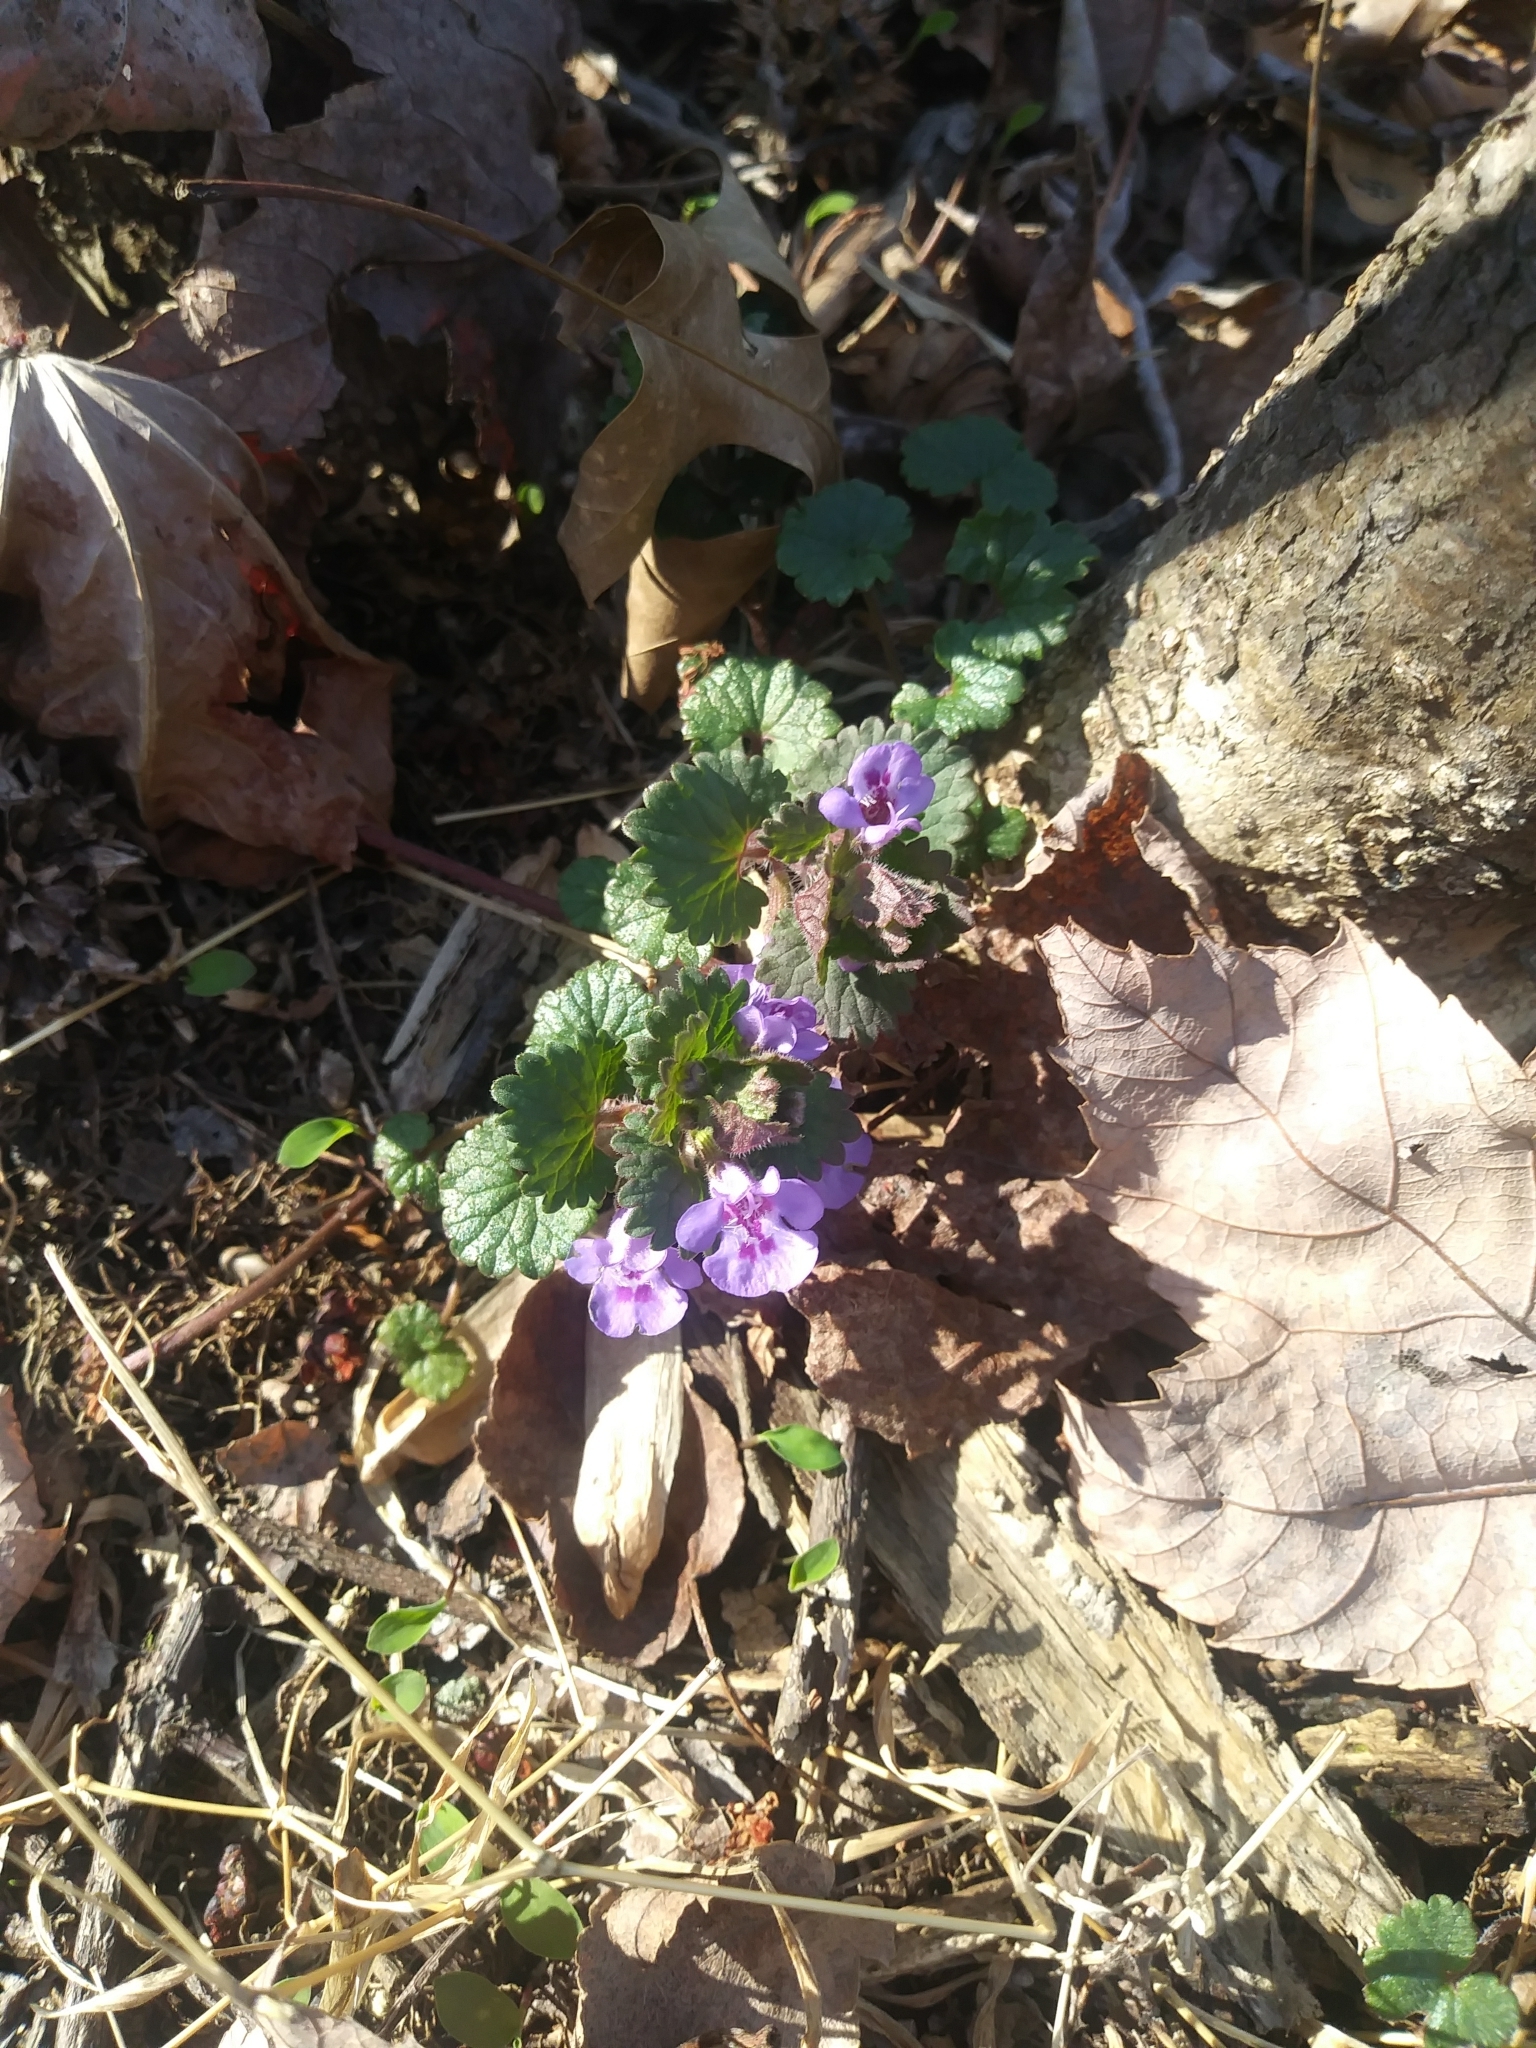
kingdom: Plantae
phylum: Tracheophyta
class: Magnoliopsida
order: Lamiales
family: Lamiaceae
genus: Glechoma
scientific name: Glechoma hederacea
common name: Ground ivy
